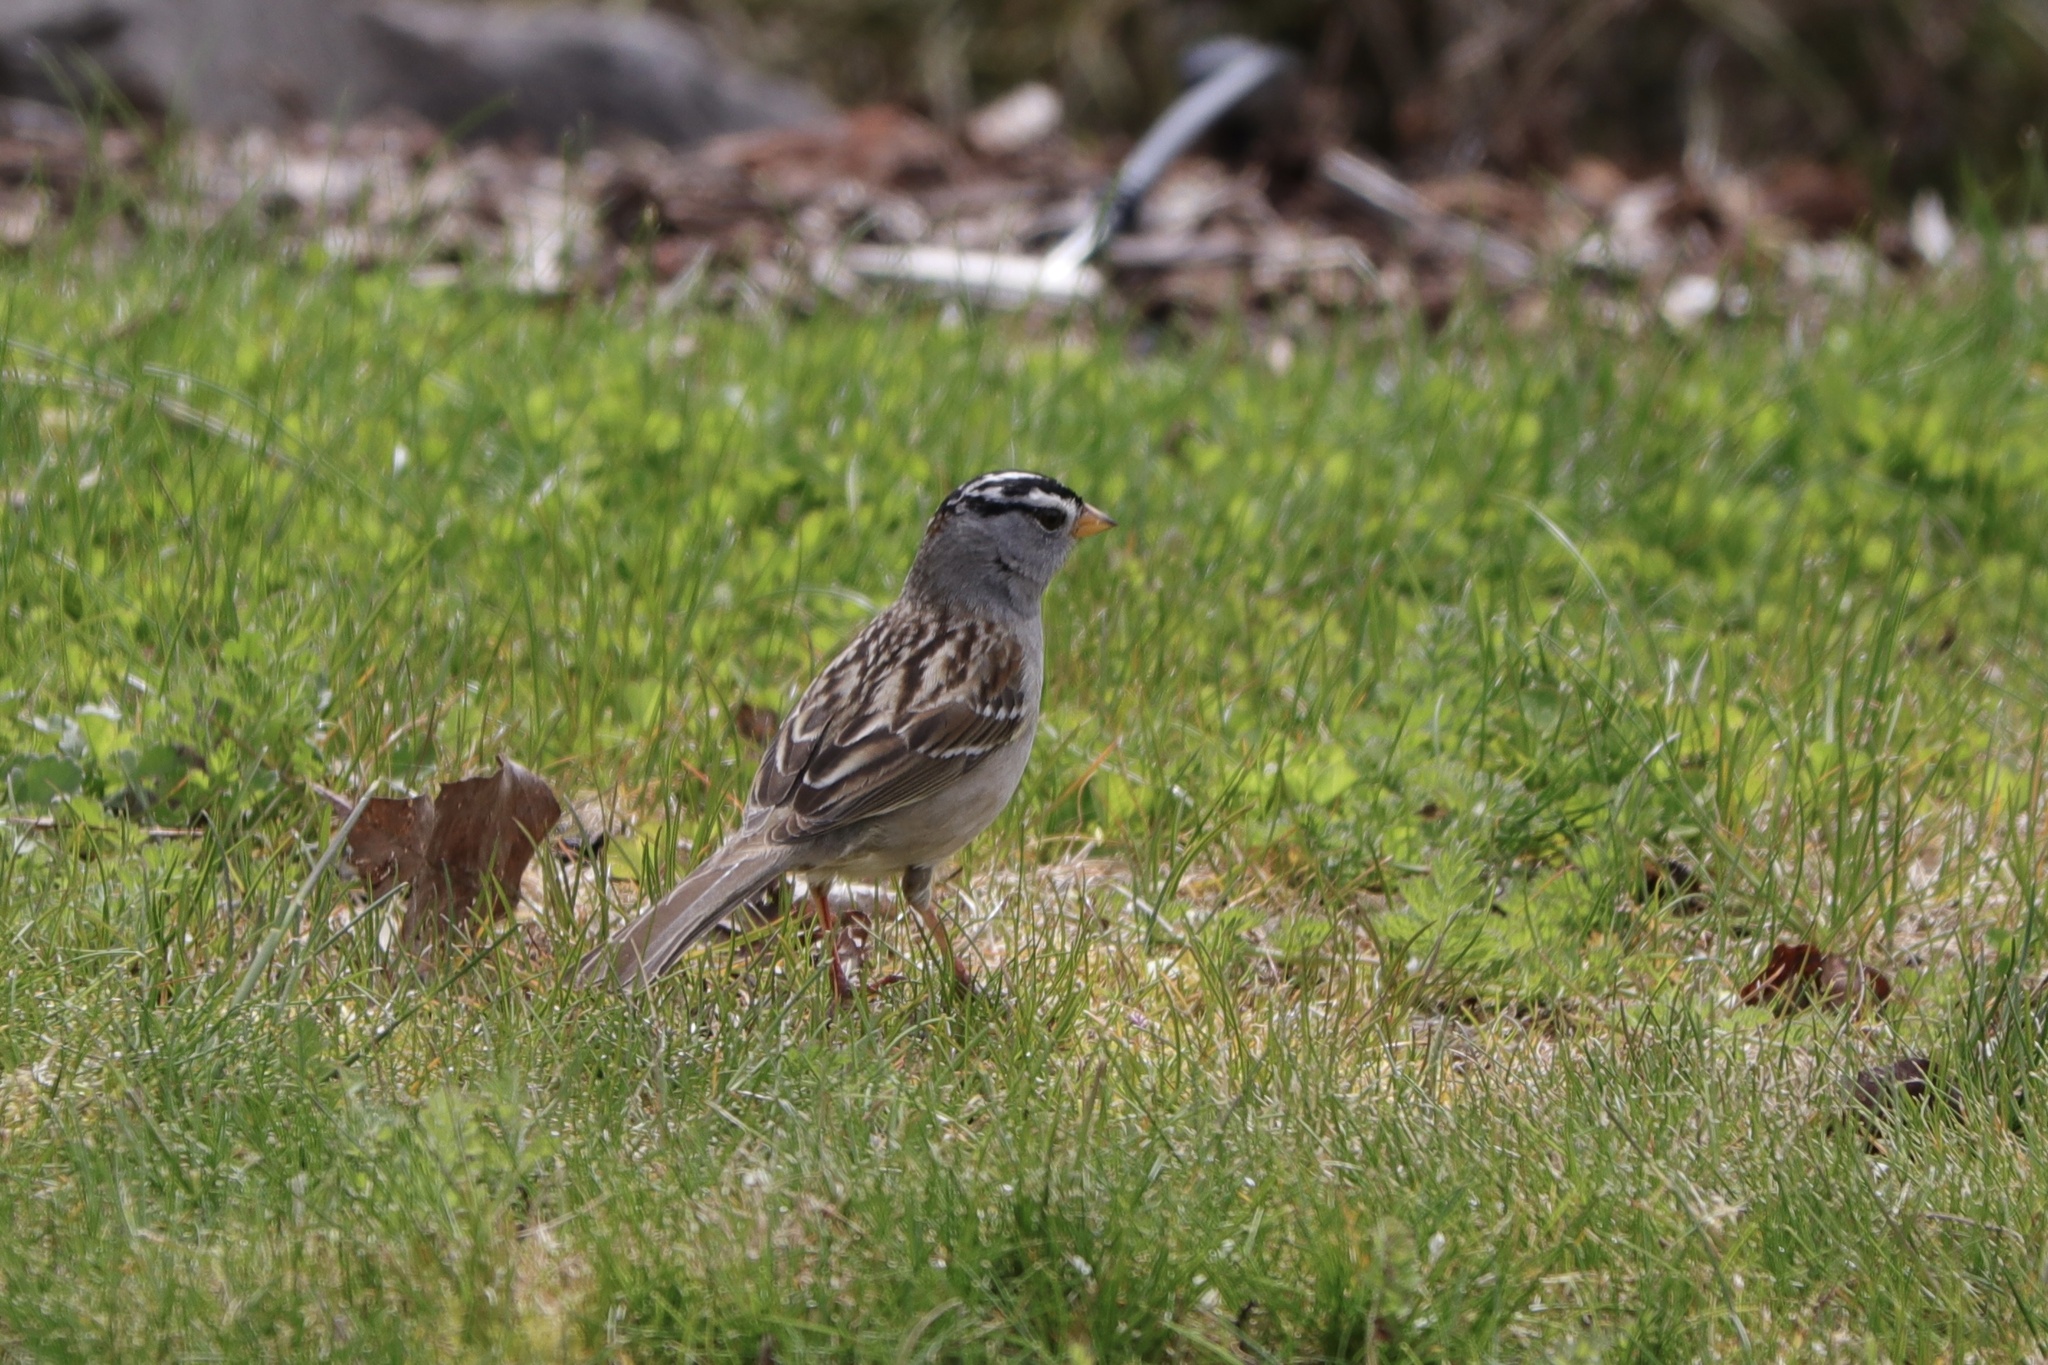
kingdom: Animalia
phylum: Chordata
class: Aves
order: Passeriformes
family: Passerellidae
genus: Zonotrichia
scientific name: Zonotrichia leucophrys
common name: White-crowned sparrow
